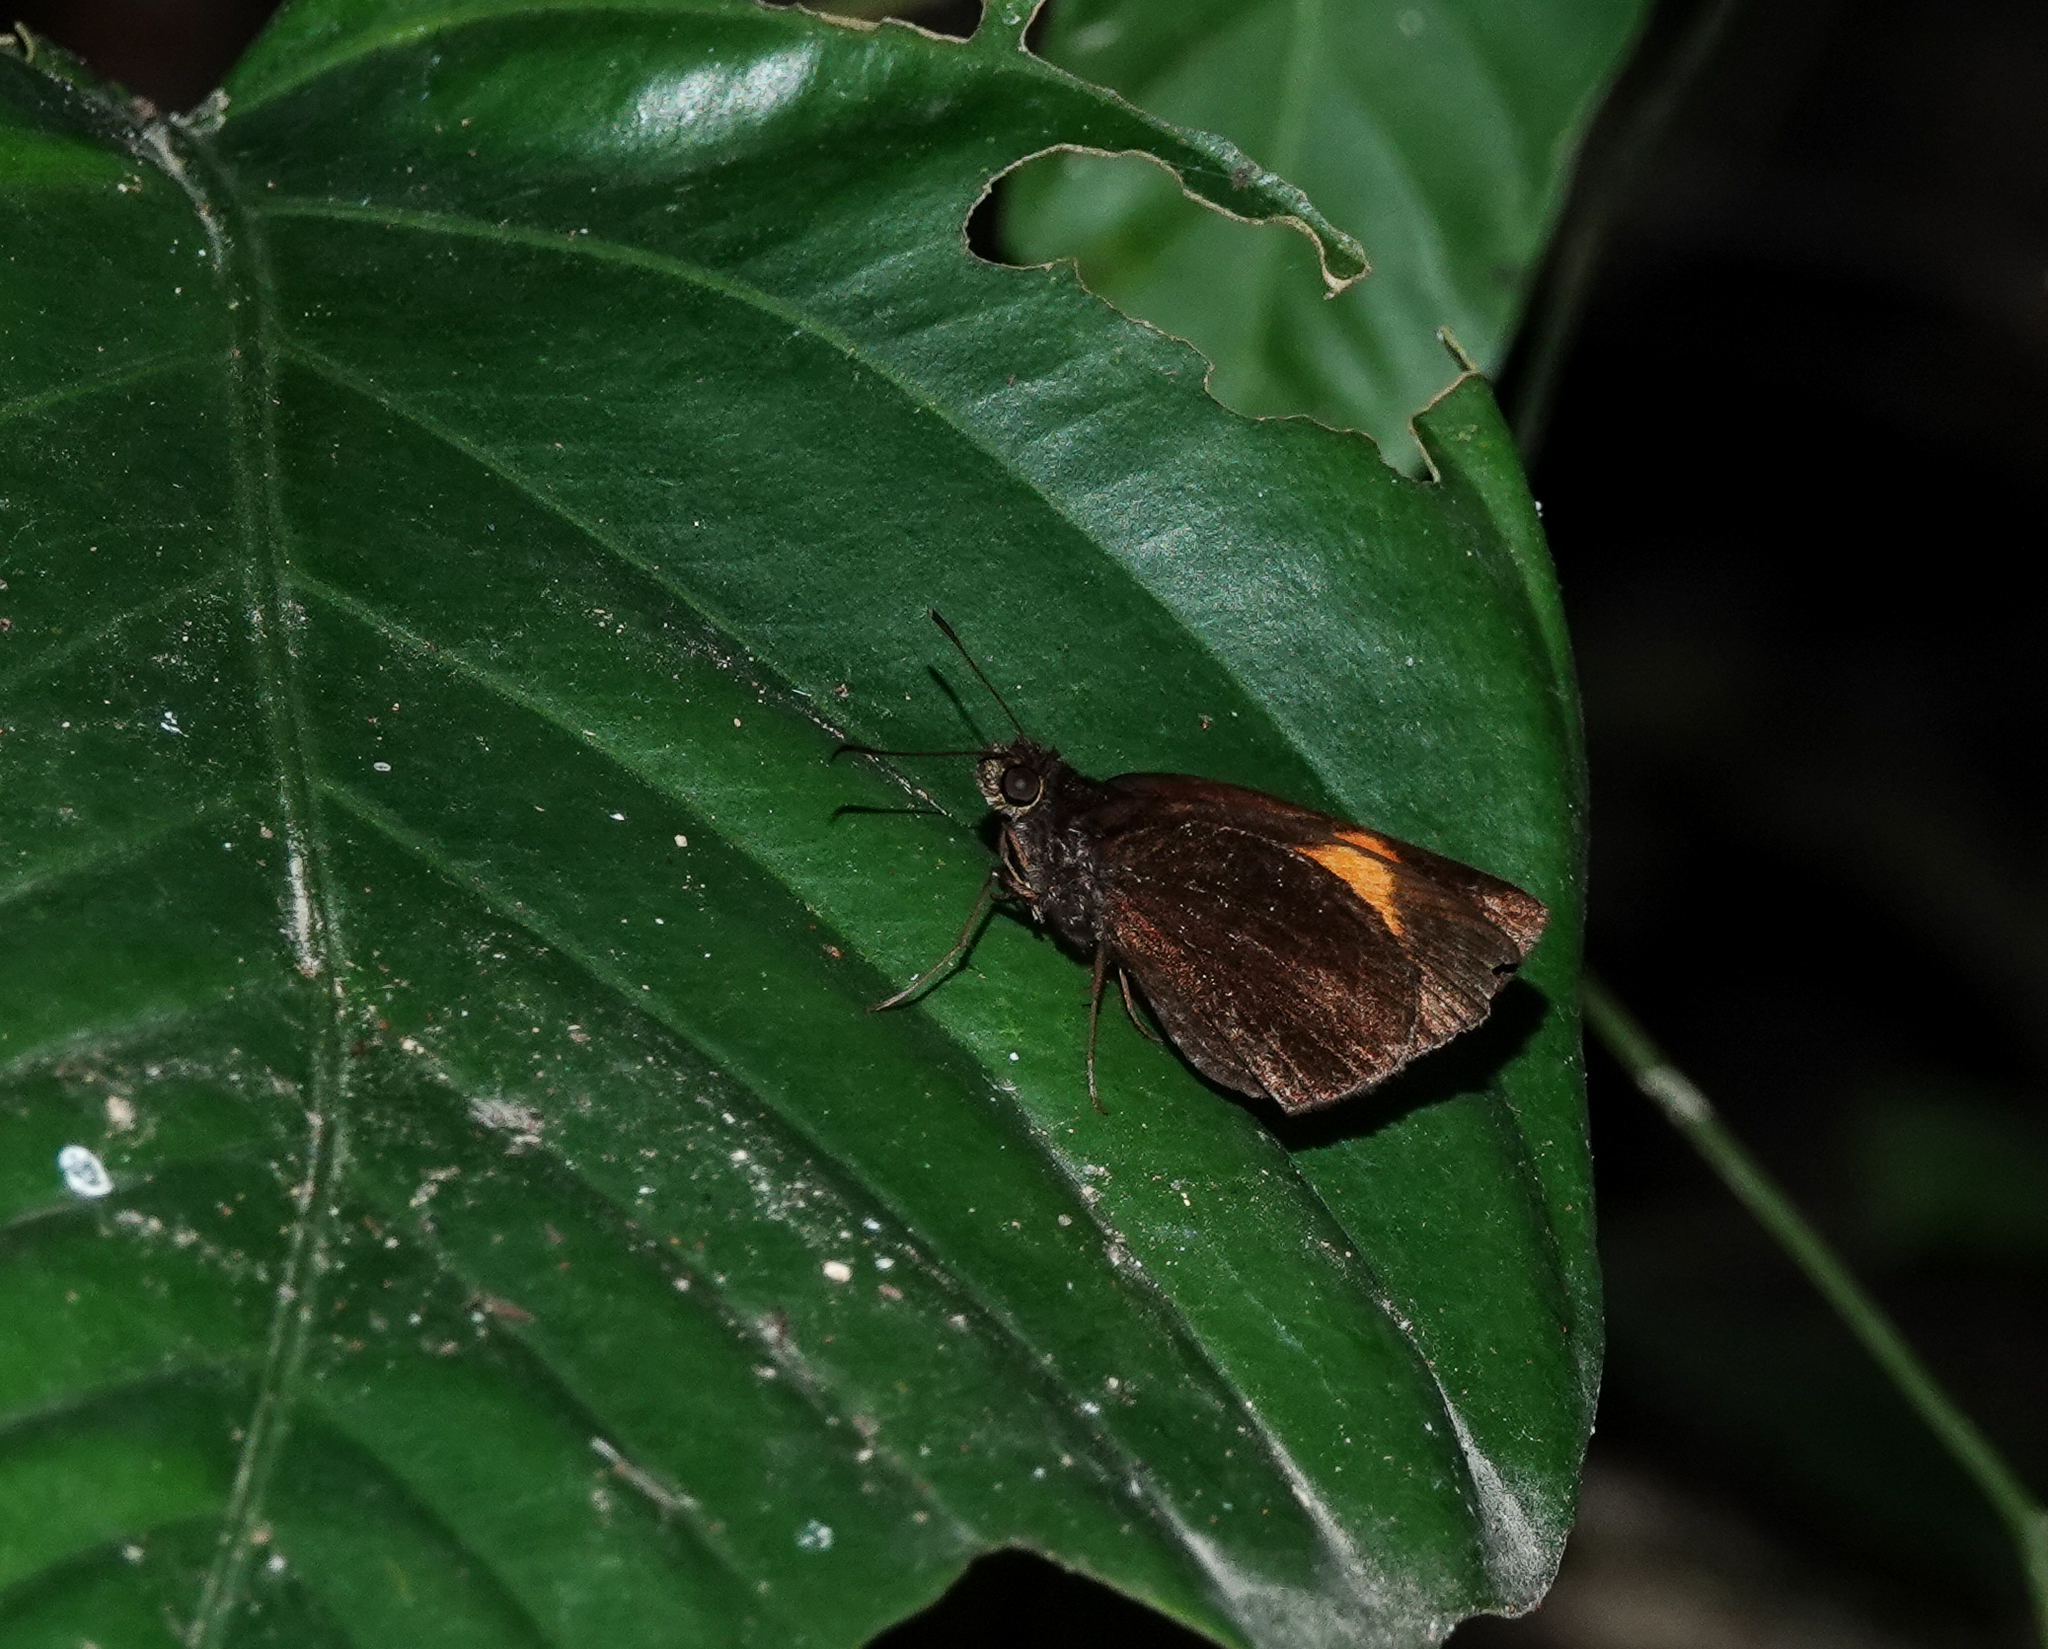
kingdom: Animalia
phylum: Arthropoda
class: Insecta
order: Lepidoptera
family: Hesperiidae
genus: Koruthaialos
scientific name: Koruthaialos sindu
